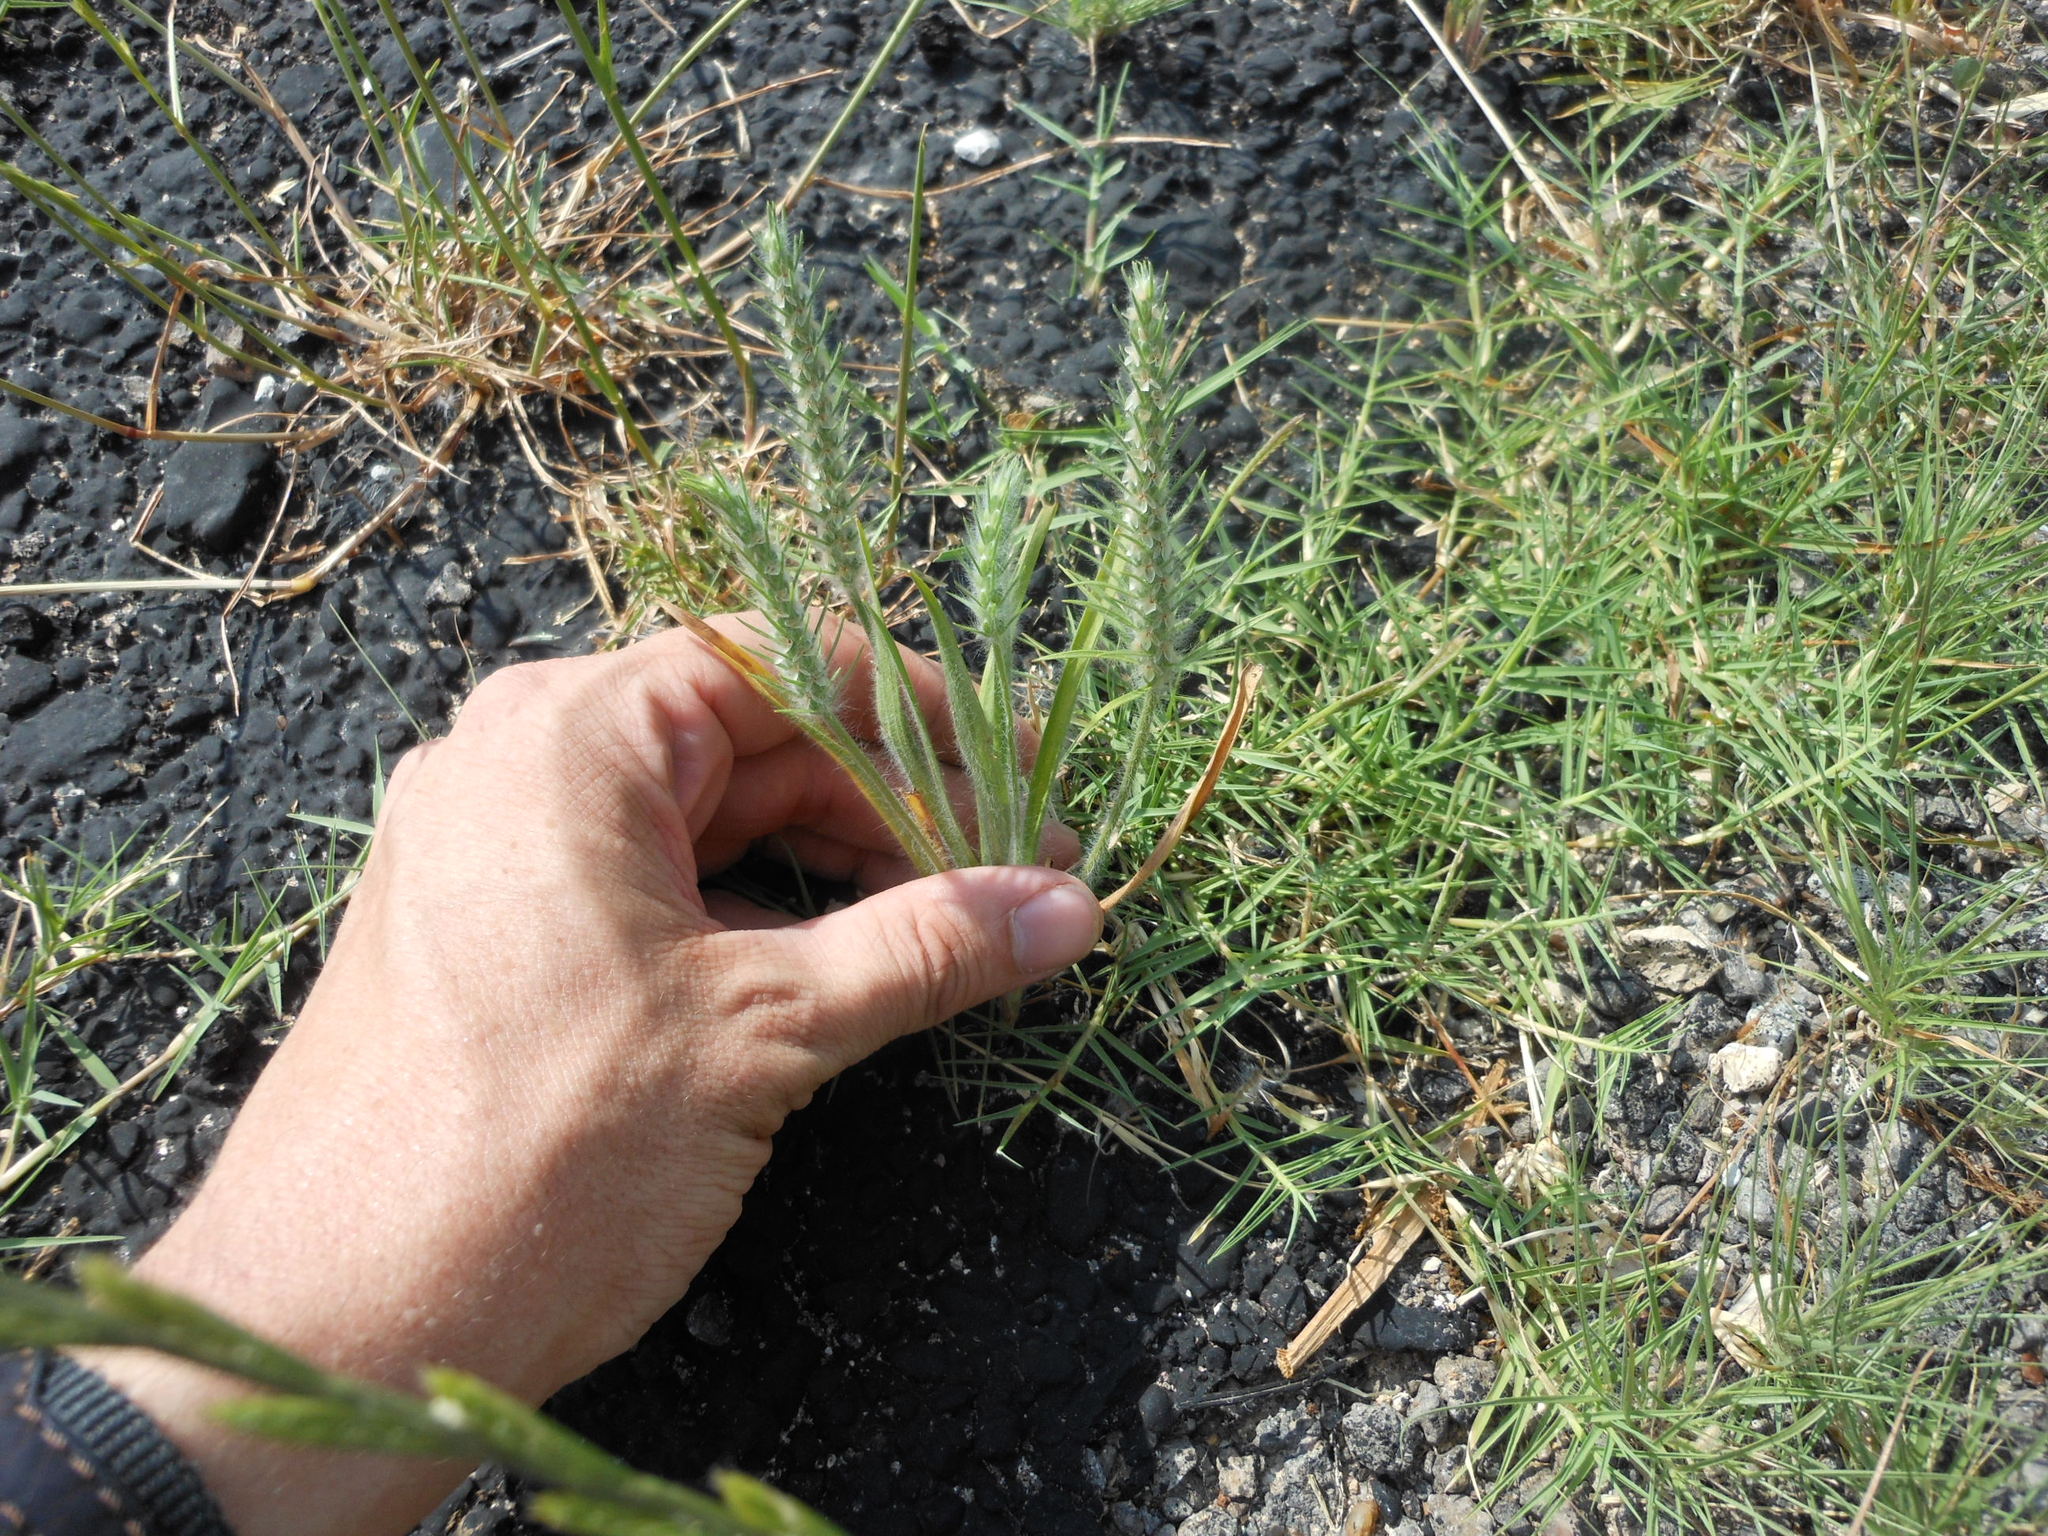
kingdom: Plantae
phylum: Tracheophyta
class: Magnoliopsida
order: Lamiales
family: Plantaginaceae
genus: Plantago
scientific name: Plantago aristata
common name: Bracted plantain
